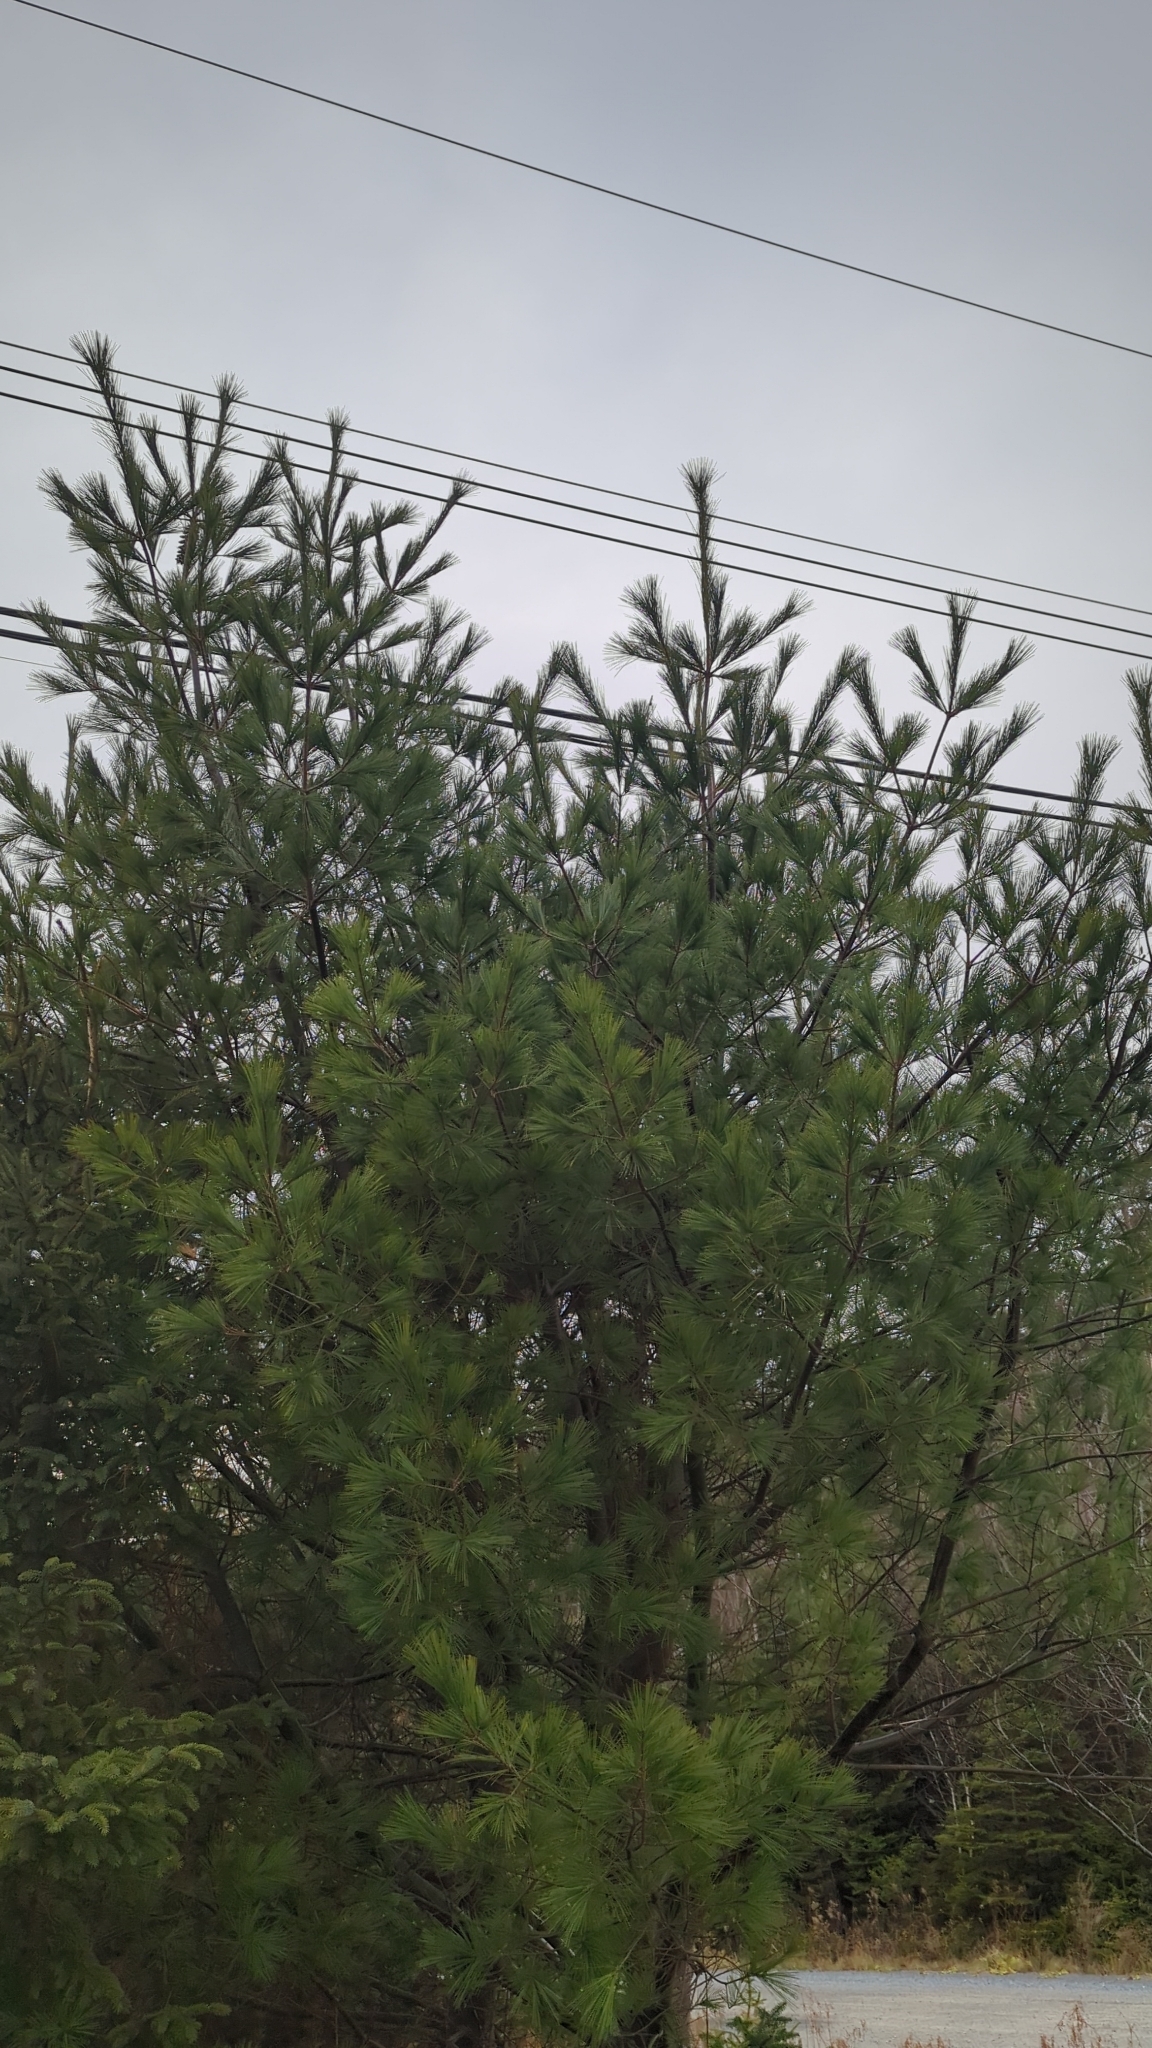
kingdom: Plantae
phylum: Tracheophyta
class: Pinopsida
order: Pinales
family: Pinaceae
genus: Pinus
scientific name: Pinus strobus
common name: Weymouth pine
